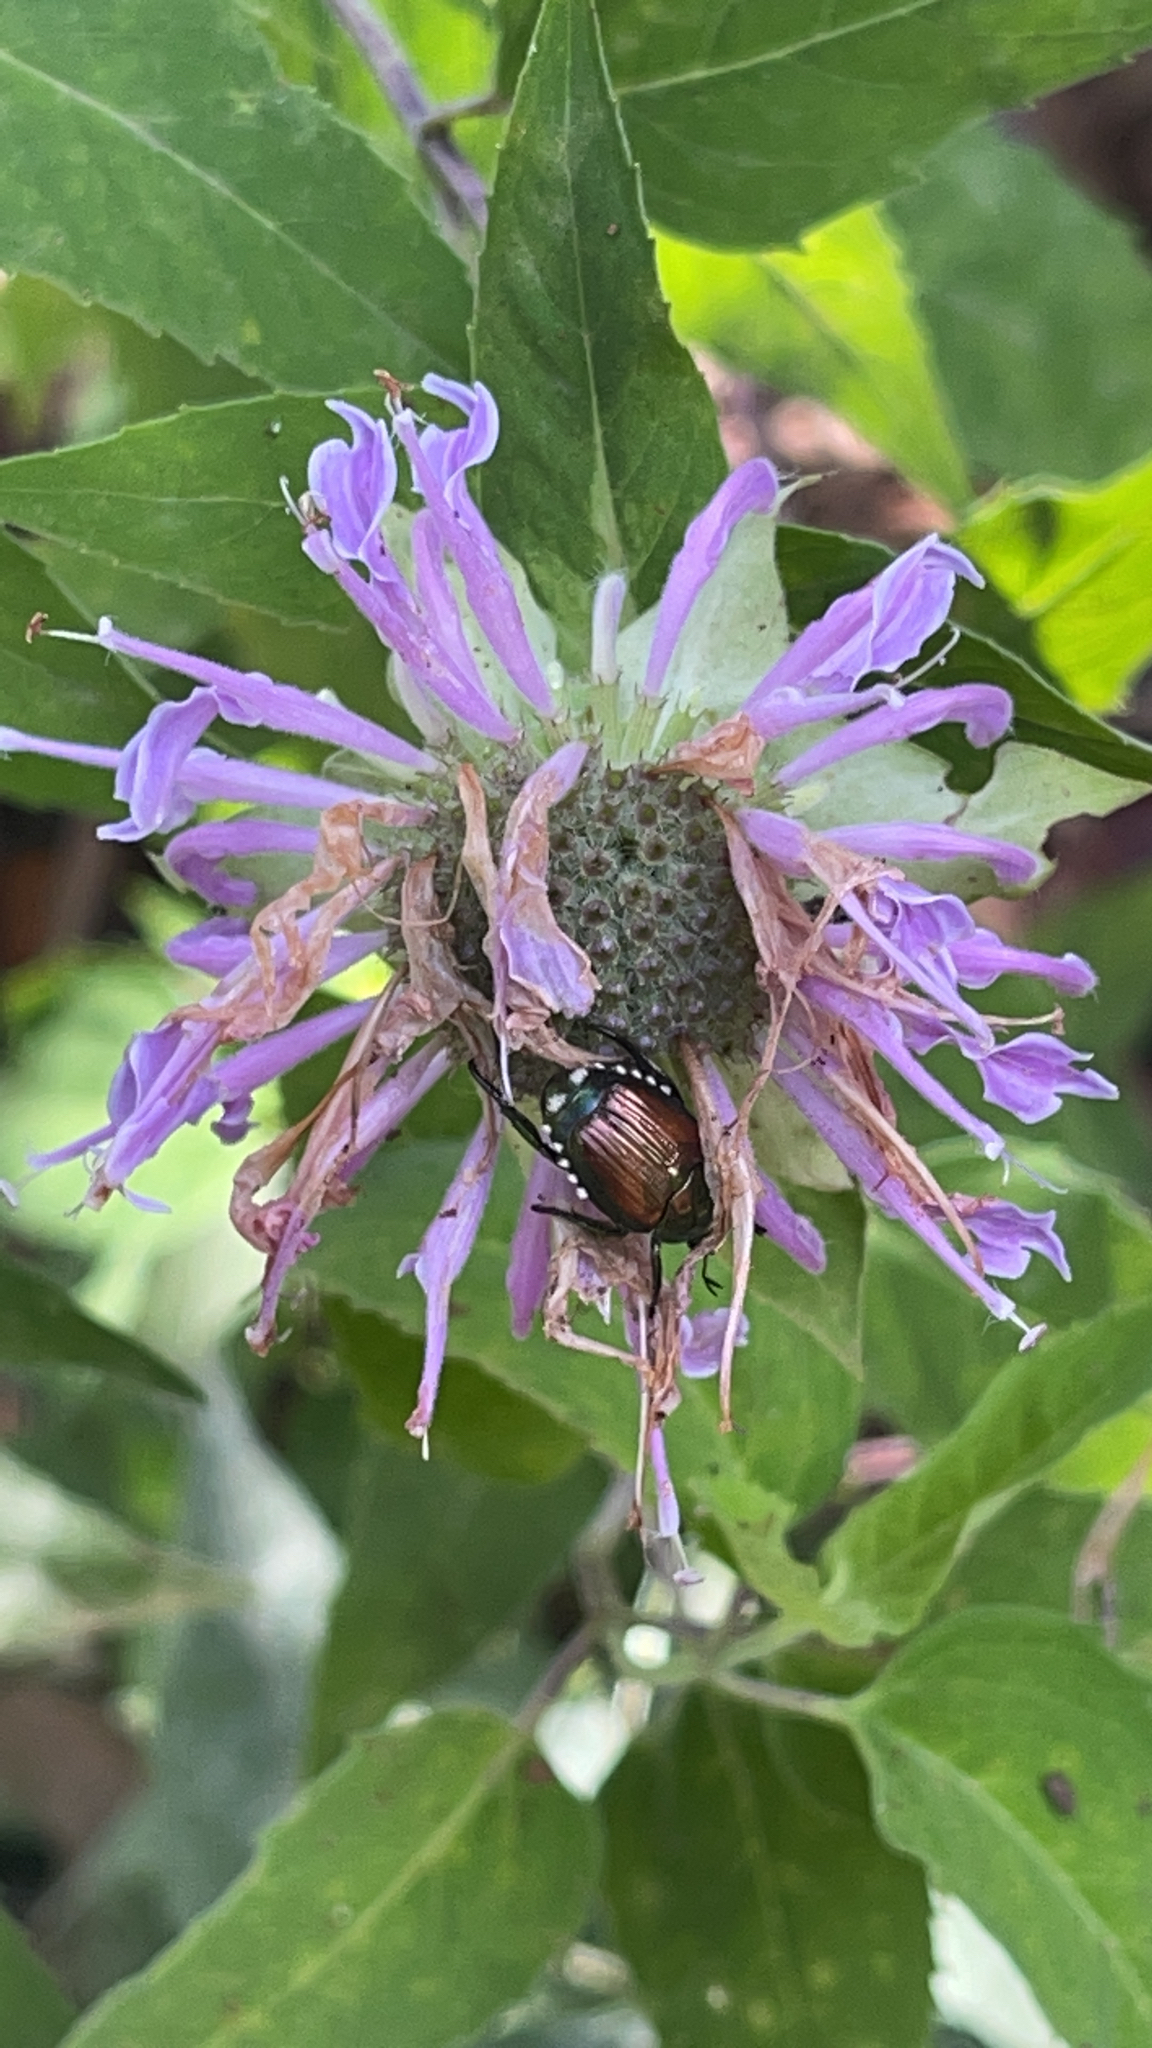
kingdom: Animalia
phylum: Arthropoda
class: Insecta
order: Coleoptera
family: Scarabaeidae
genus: Popillia
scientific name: Popillia japonica
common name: Japanese beetle
